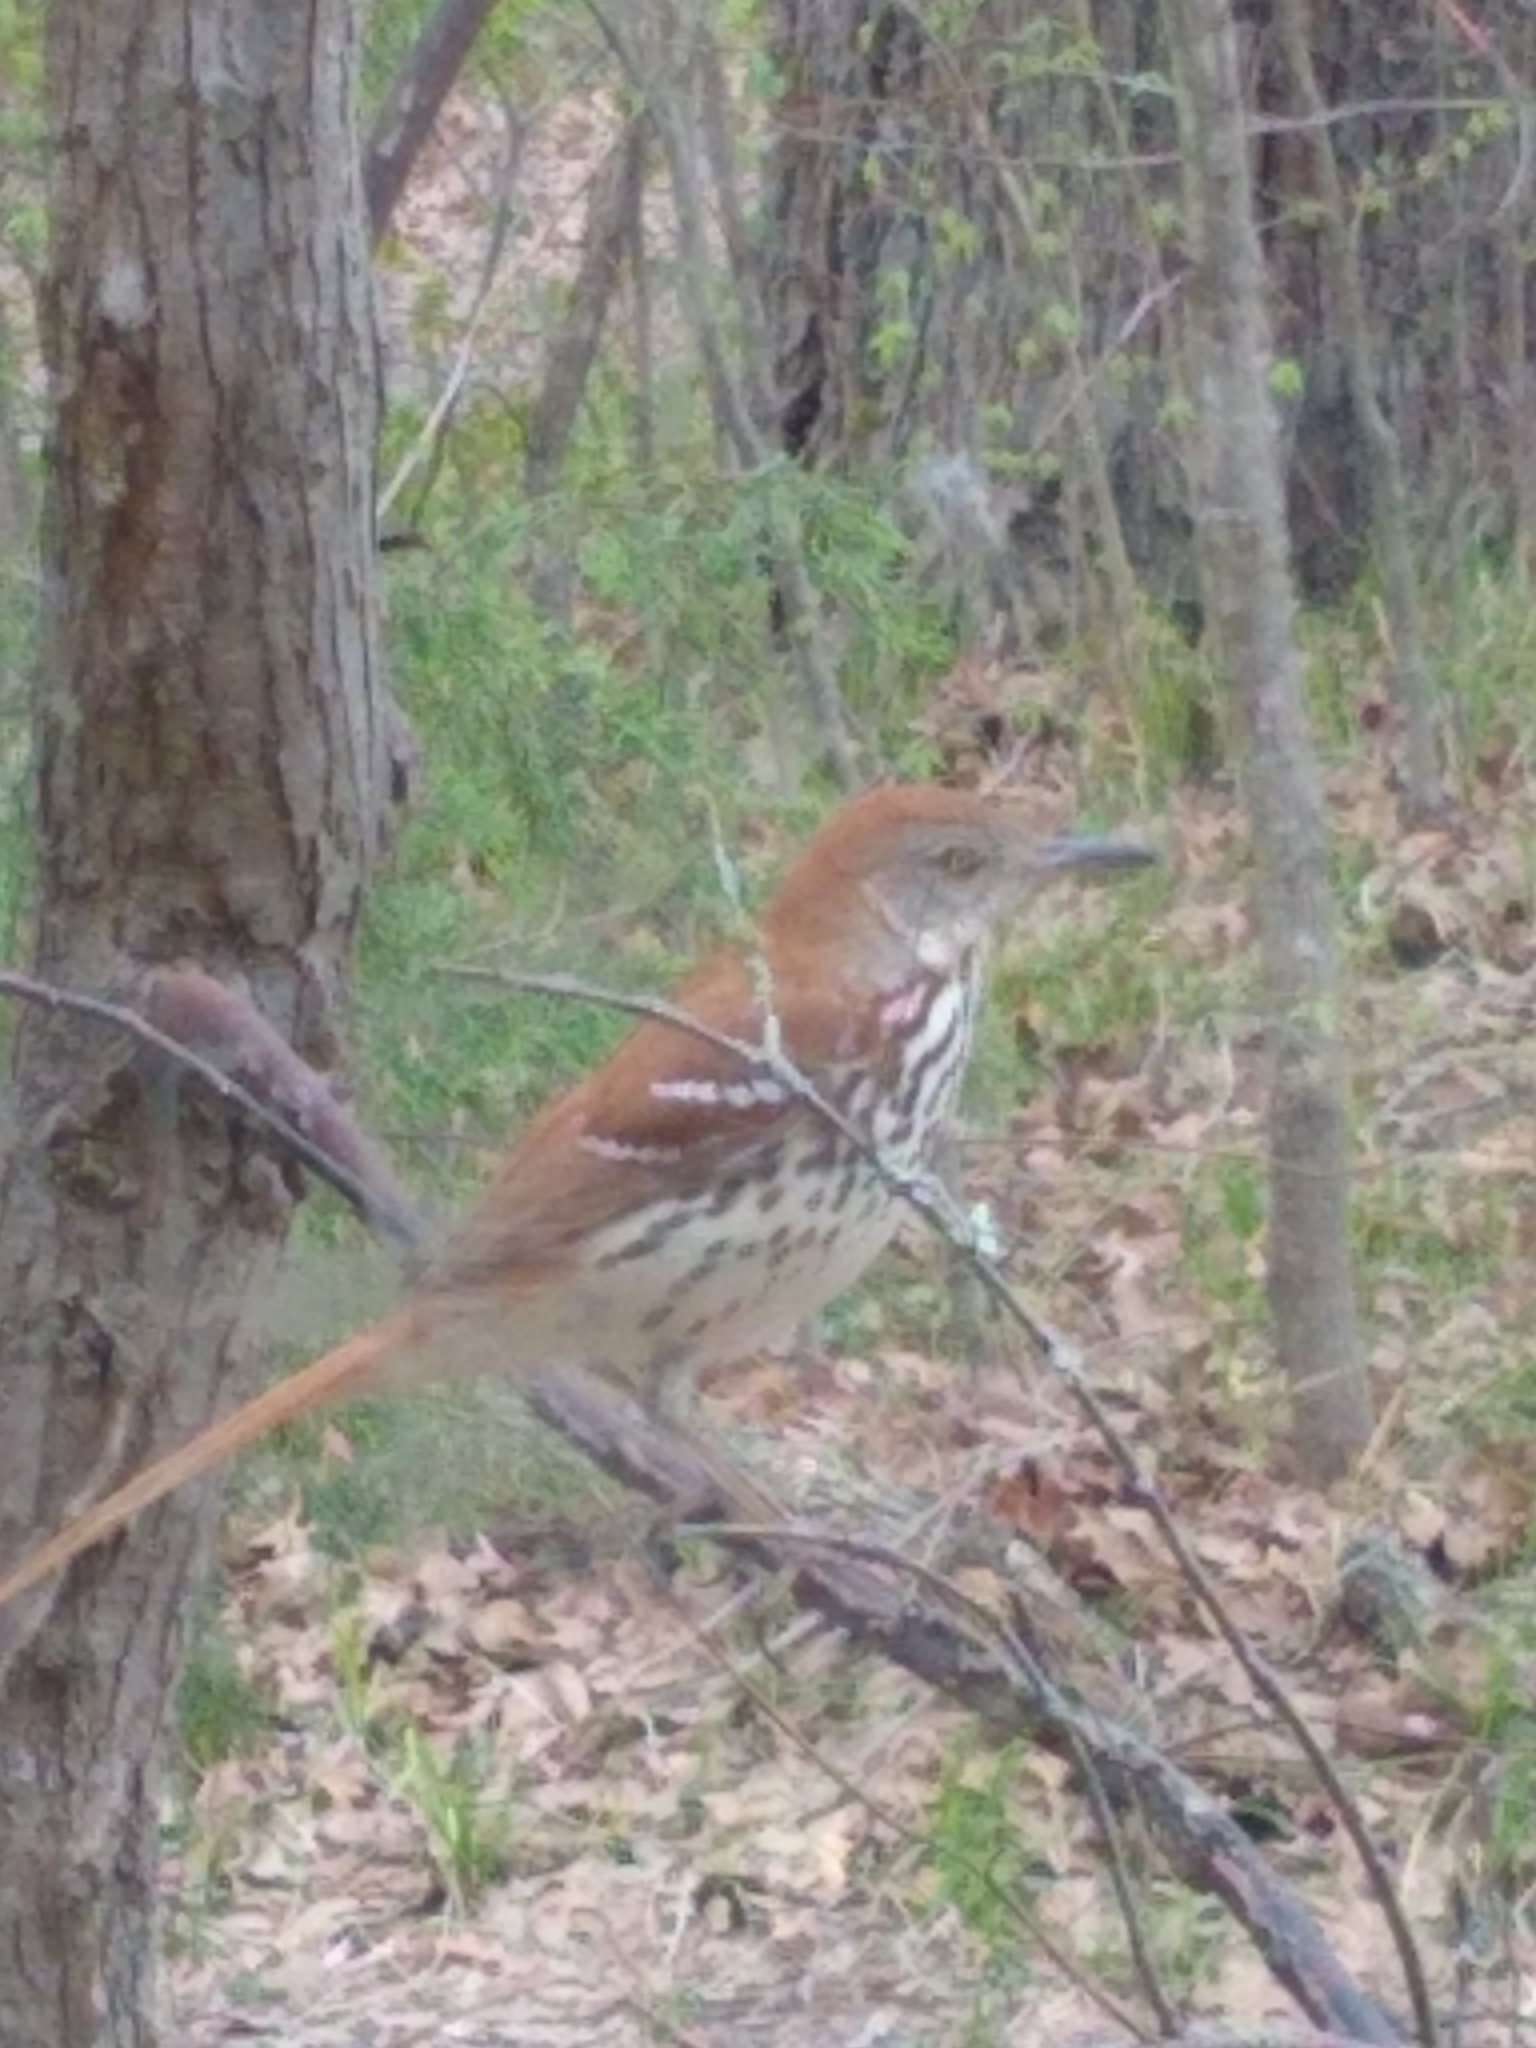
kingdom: Animalia
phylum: Chordata
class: Aves
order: Passeriformes
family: Mimidae
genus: Toxostoma
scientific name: Toxostoma rufum
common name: Brown thrasher
